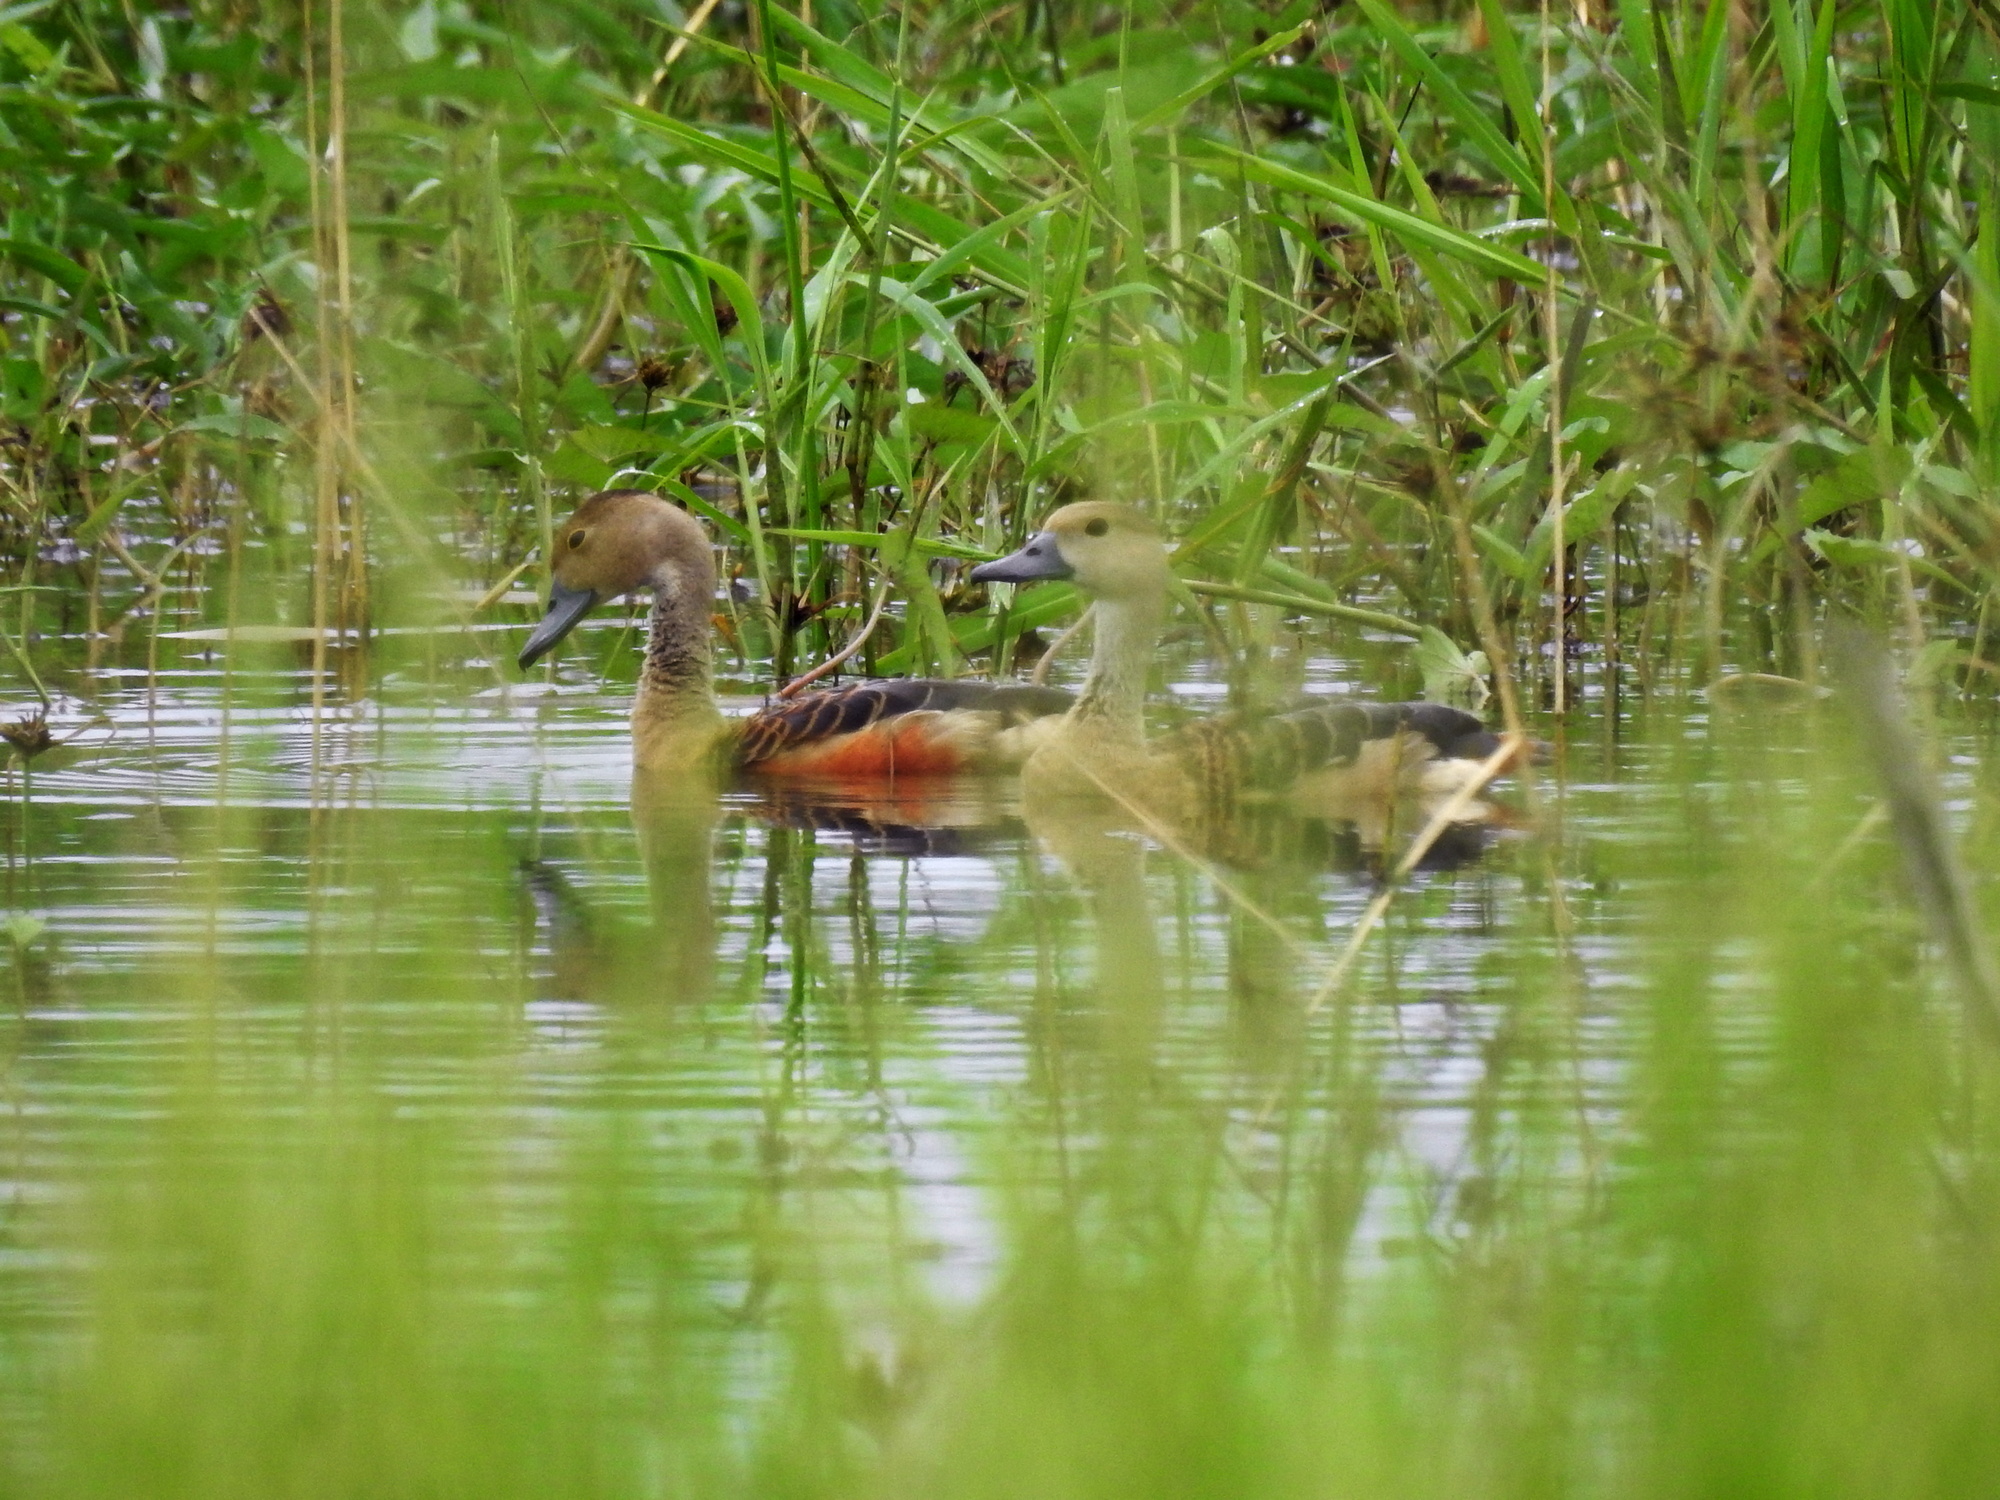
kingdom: Animalia
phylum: Chordata
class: Aves
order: Anseriformes
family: Anatidae
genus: Dendrocygna
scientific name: Dendrocygna javanica
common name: Lesser whistling-duck
